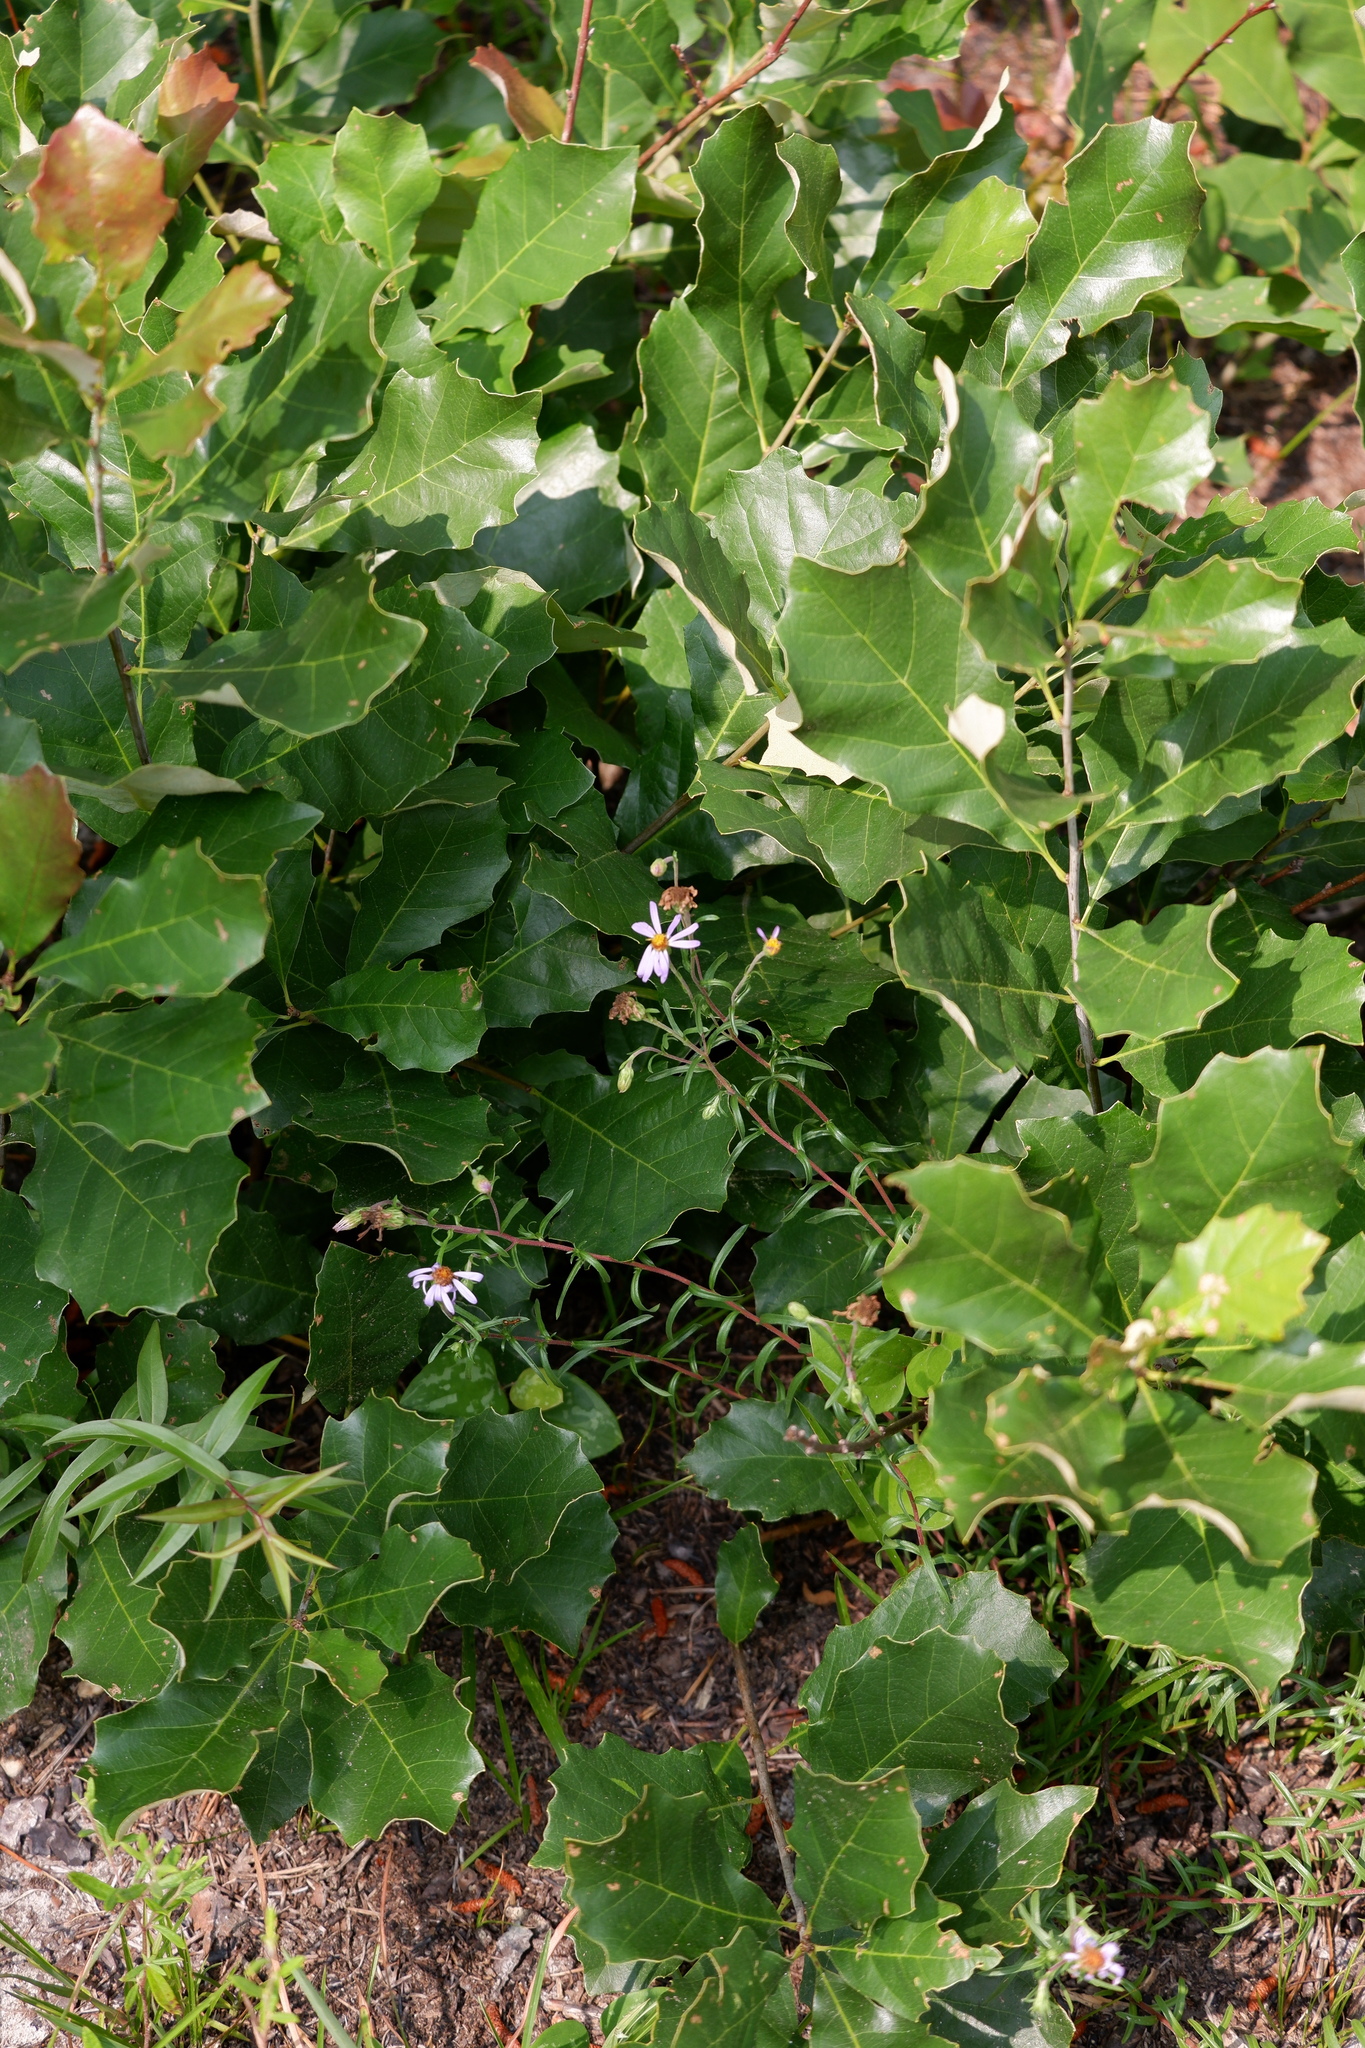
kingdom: Plantae
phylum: Tracheophyta
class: Magnoliopsida
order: Asterales
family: Asteraceae
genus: Ionactis
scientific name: Ionactis linariifolia
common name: Flax-leaf aster
